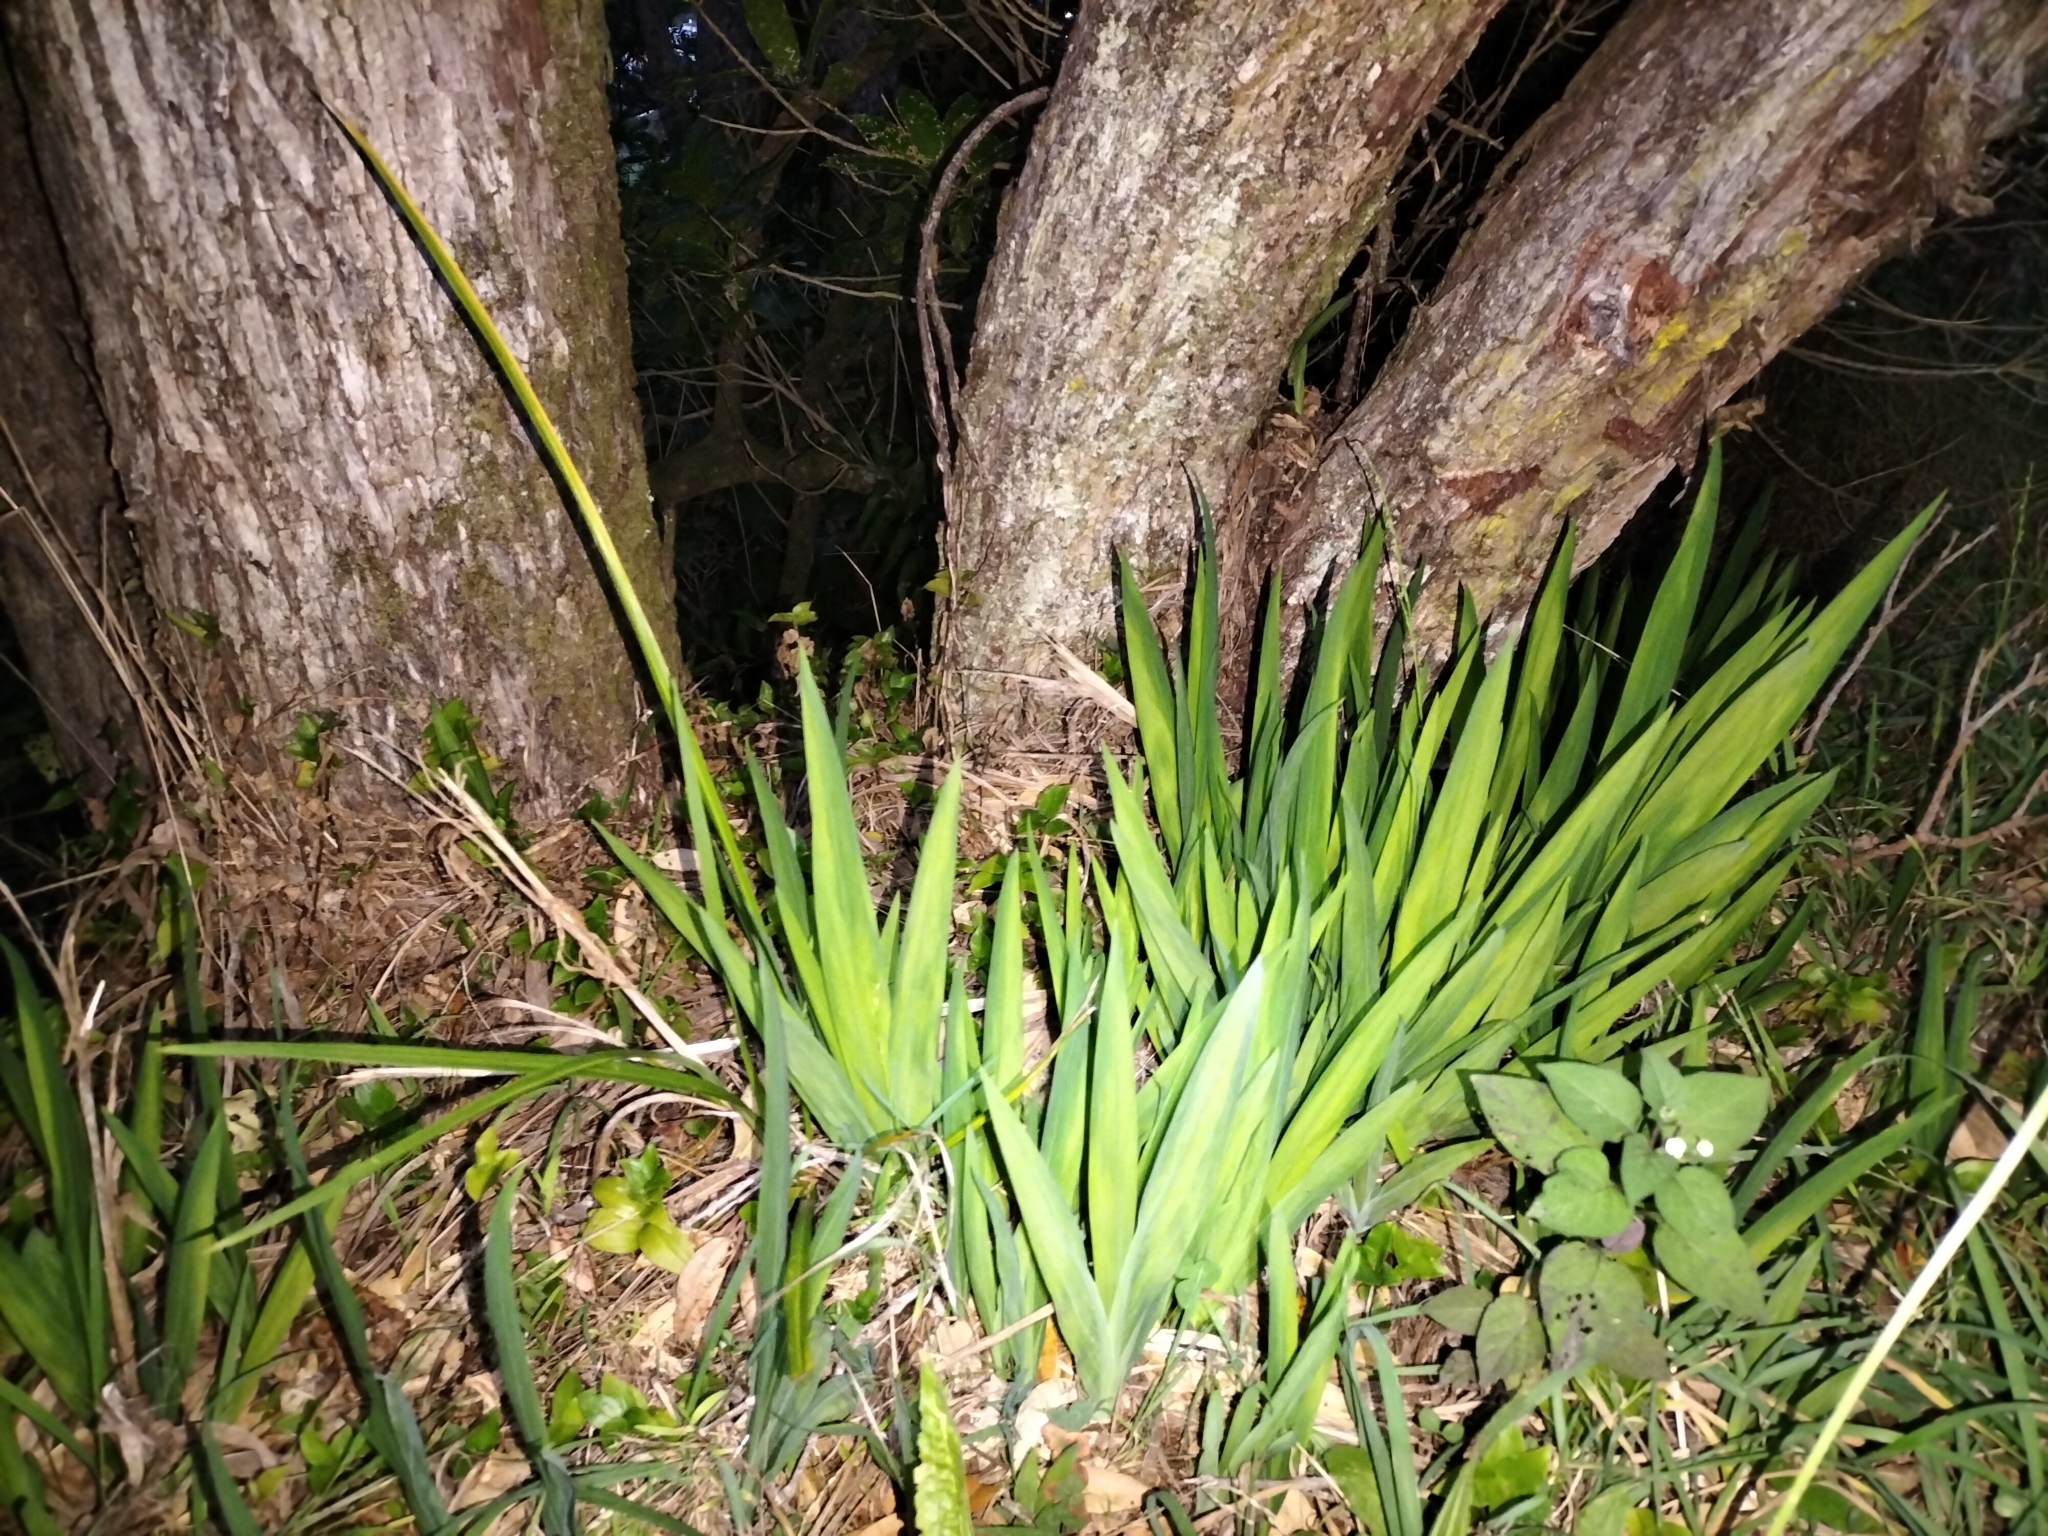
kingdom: Plantae
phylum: Tracheophyta
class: Liliopsida
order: Asparagales
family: Iridaceae
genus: Chasmanthe
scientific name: Chasmanthe floribunda
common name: African cornflag
